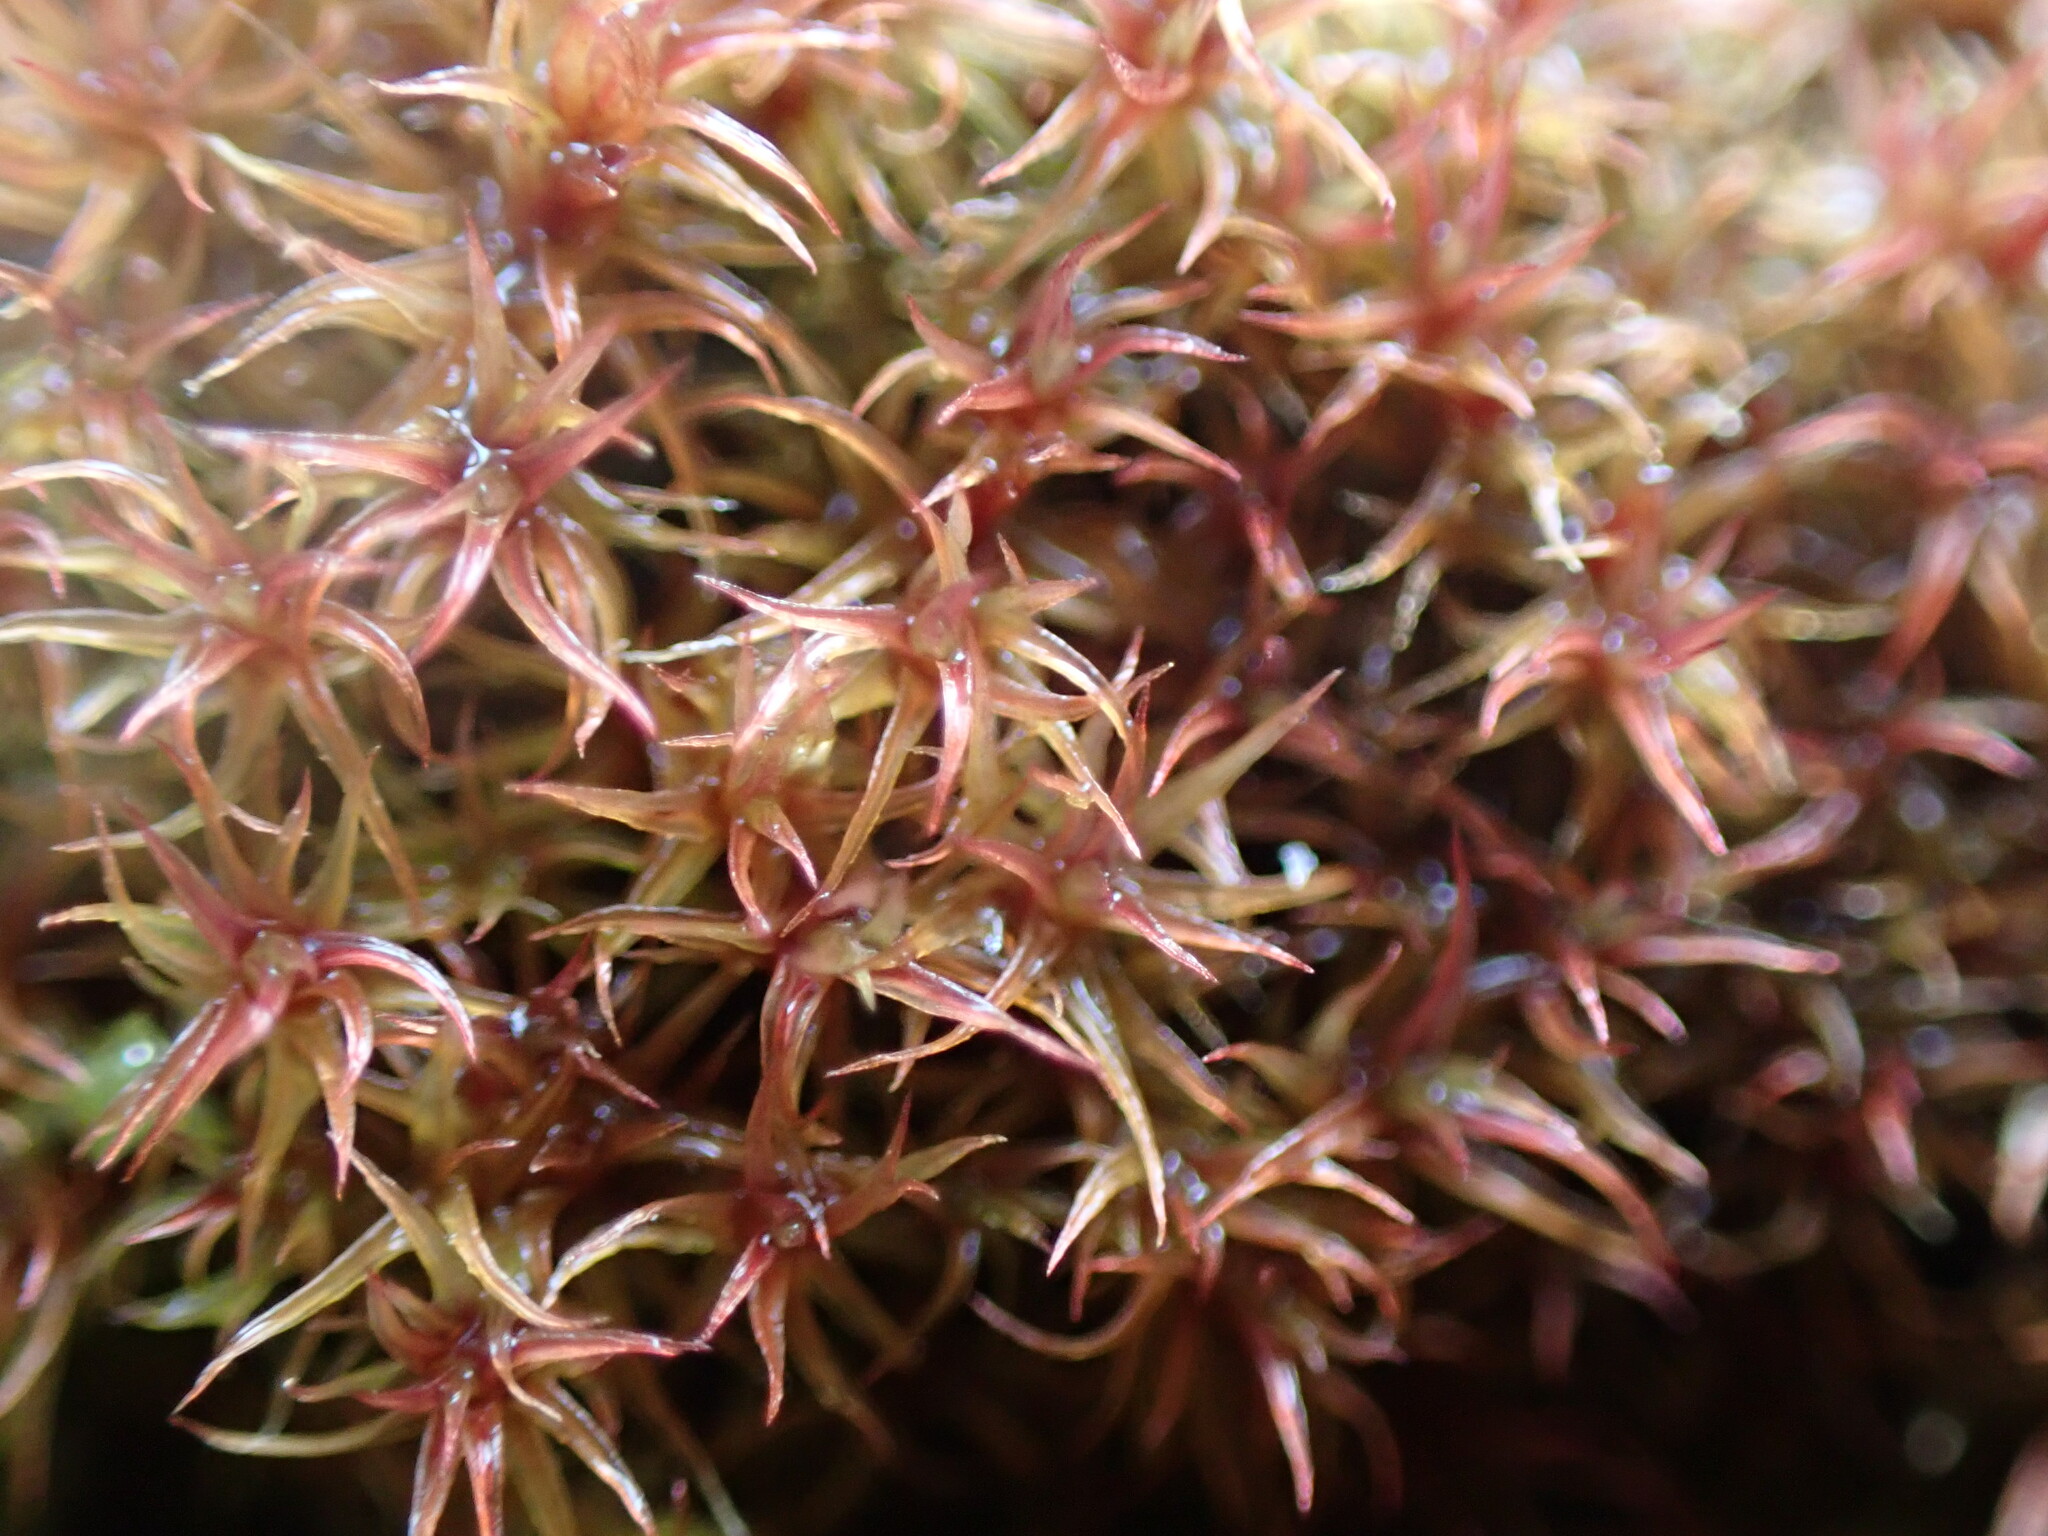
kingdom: Plantae
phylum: Bryophyta
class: Bryopsida
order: Dicranales
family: Ditrichaceae
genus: Ceratodon
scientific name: Ceratodon purpureus
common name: Redshank
